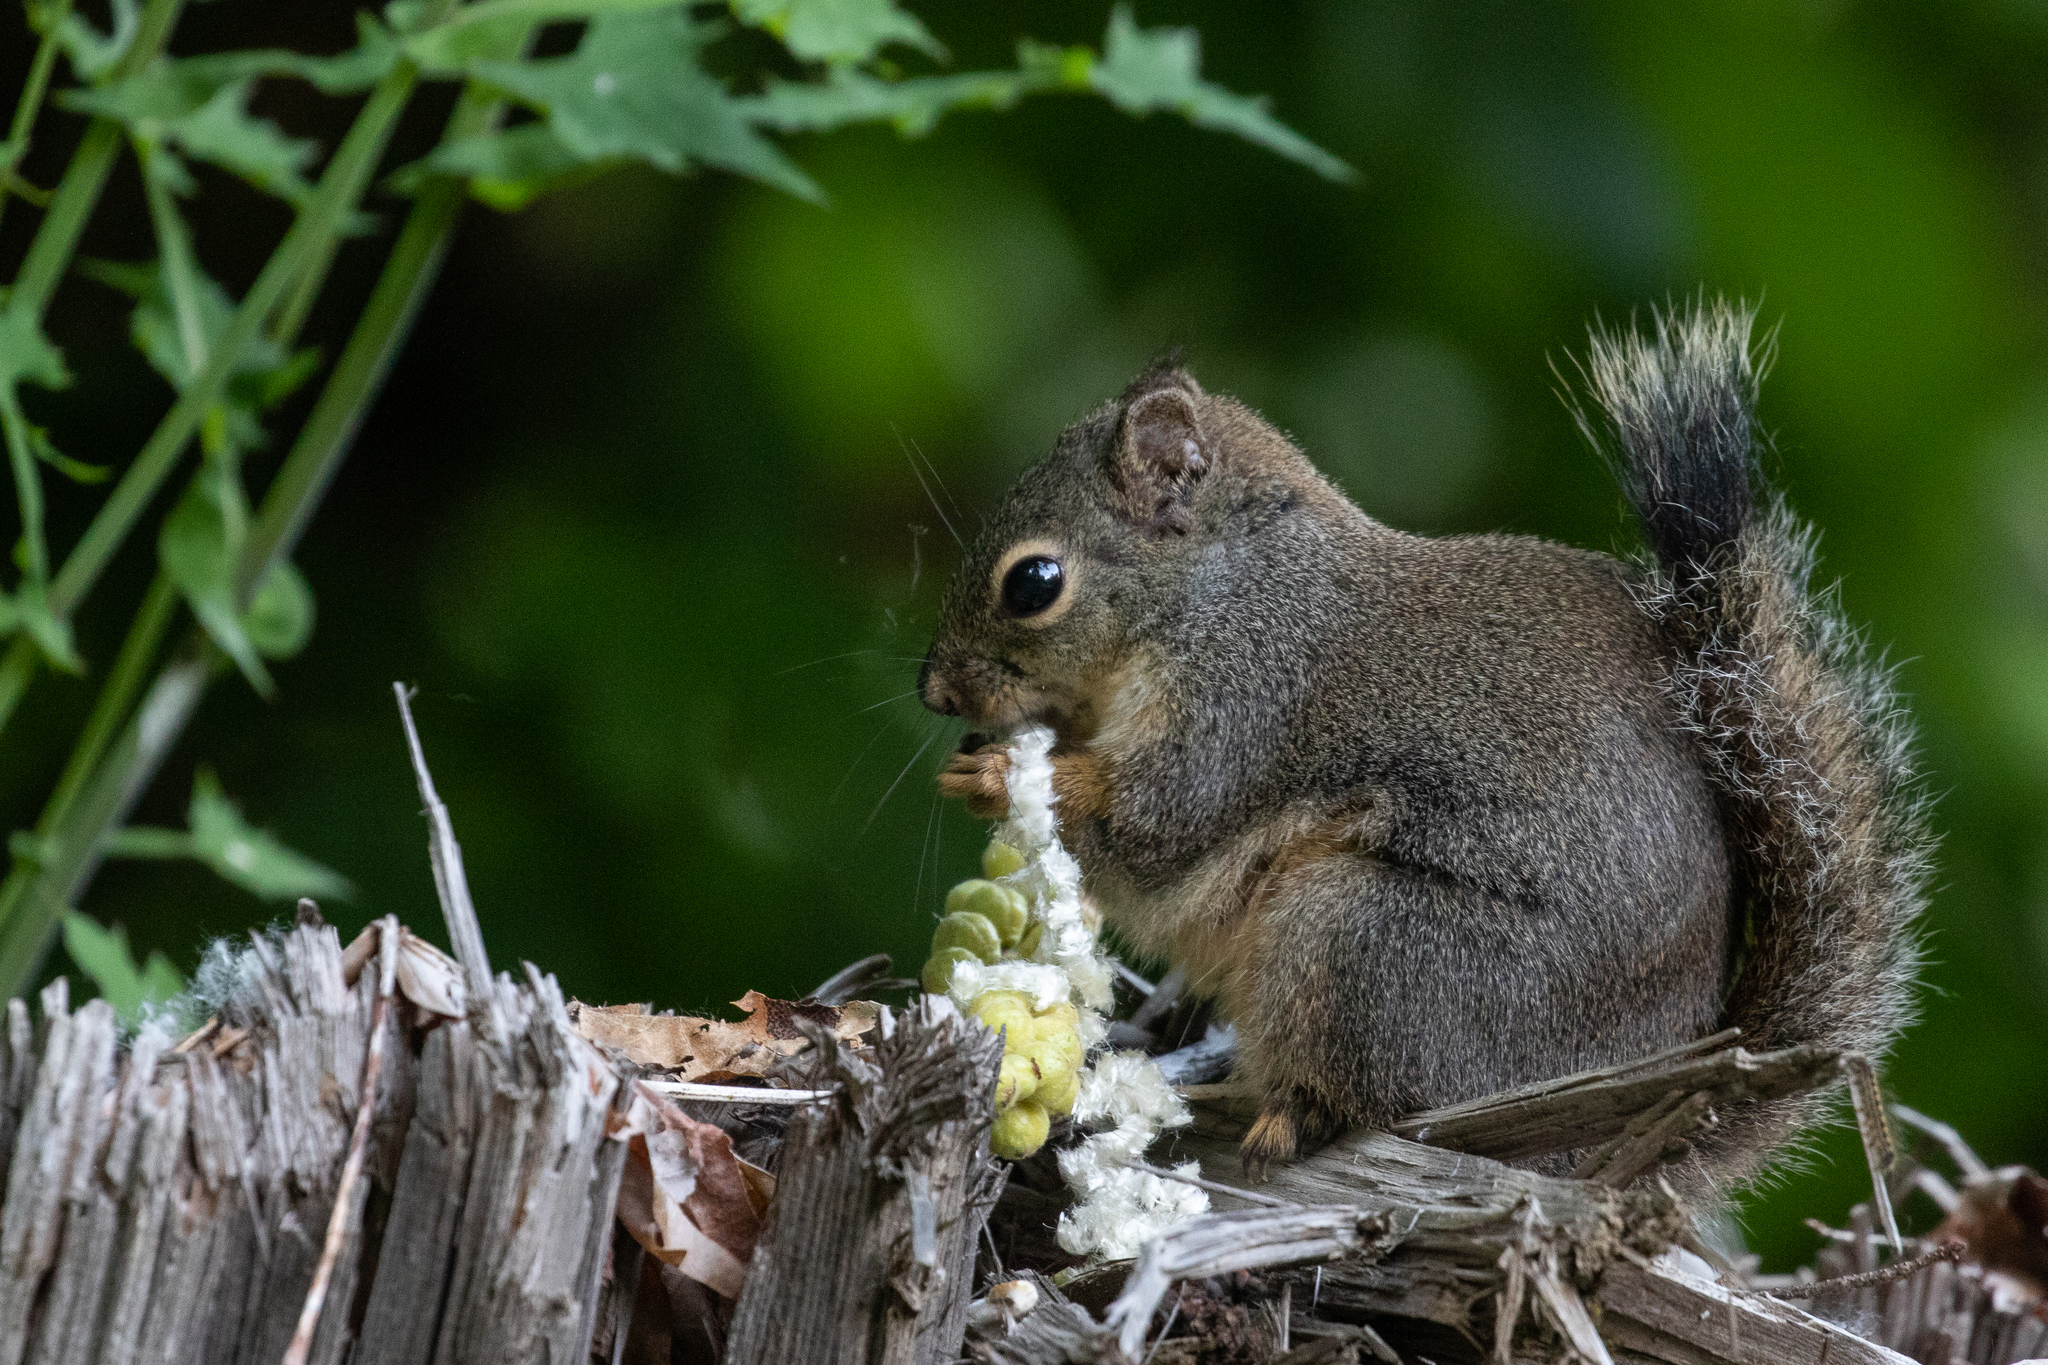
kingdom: Animalia
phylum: Chordata
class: Mammalia
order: Rodentia
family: Sciuridae
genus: Tamiasciurus
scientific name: Tamiasciurus douglasii
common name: Douglas's squirrel
